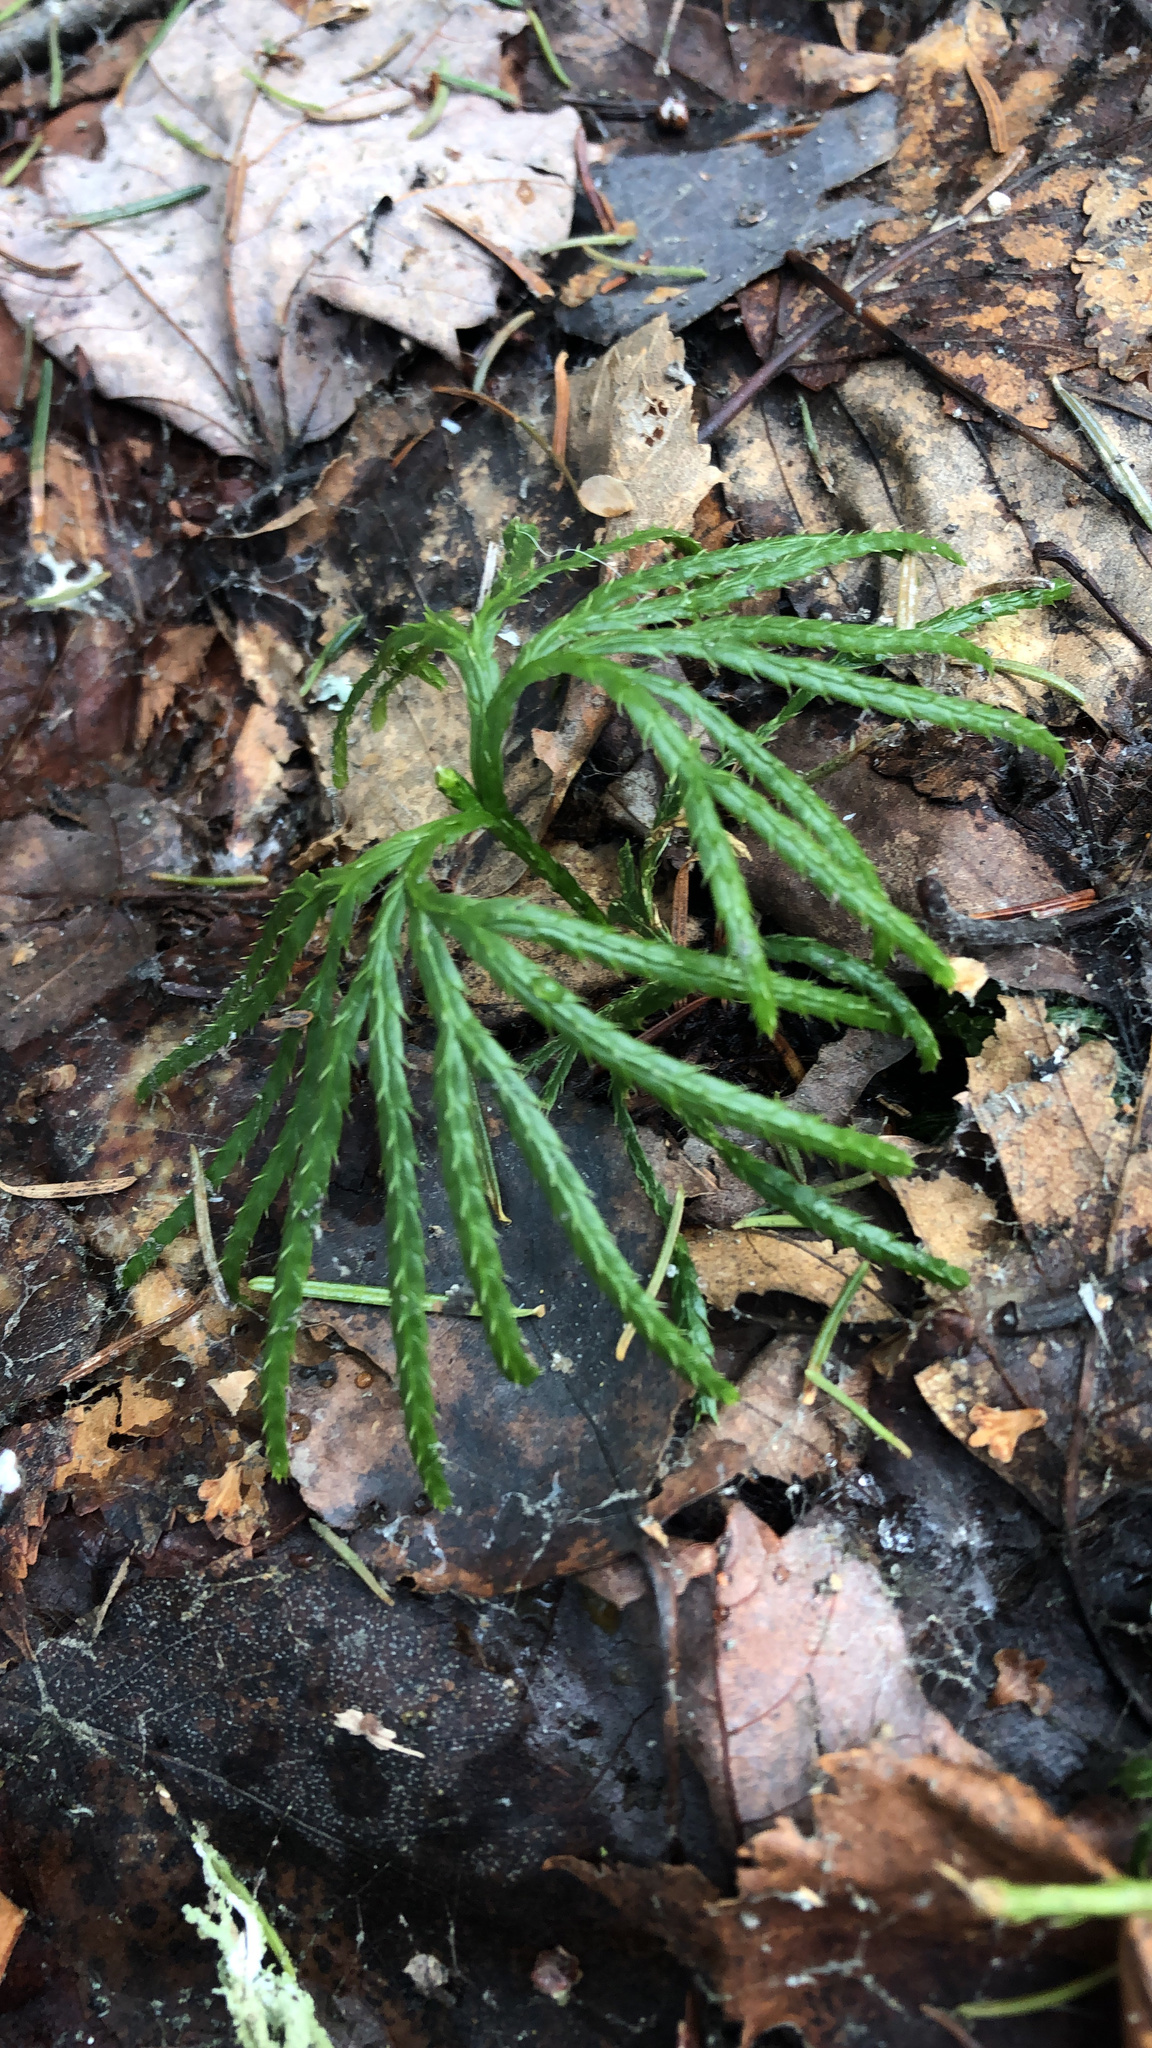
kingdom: Plantae
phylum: Tracheophyta
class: Lycopodiopsida
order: Lycopodiales
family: Lycopodiaceae
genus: Diphasiastrum
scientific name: Diphasiastrum digitatum
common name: Southern running-pine
